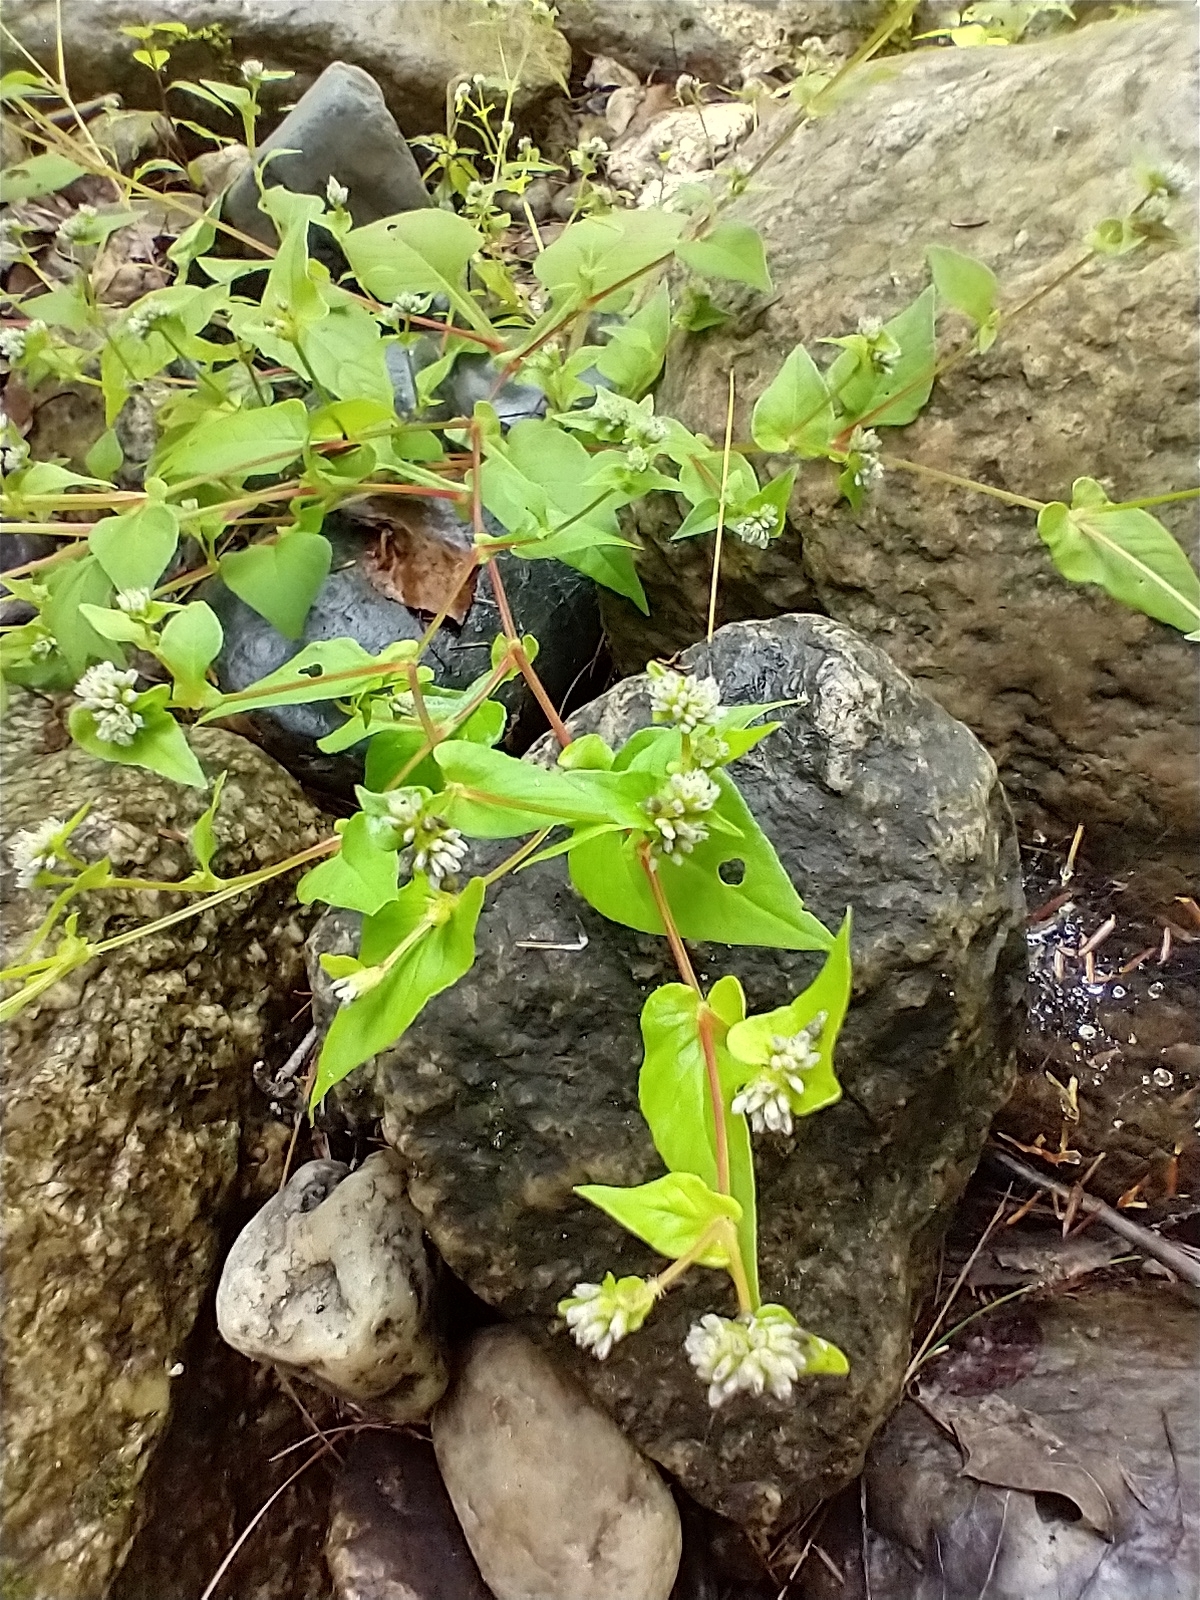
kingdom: Plantae
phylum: Tracheophyta
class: Magnoliopsida
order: Caryophyllales
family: Polygonaceae
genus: Persicaria
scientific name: Persicaria nepalensis
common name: Nepal persicaria
